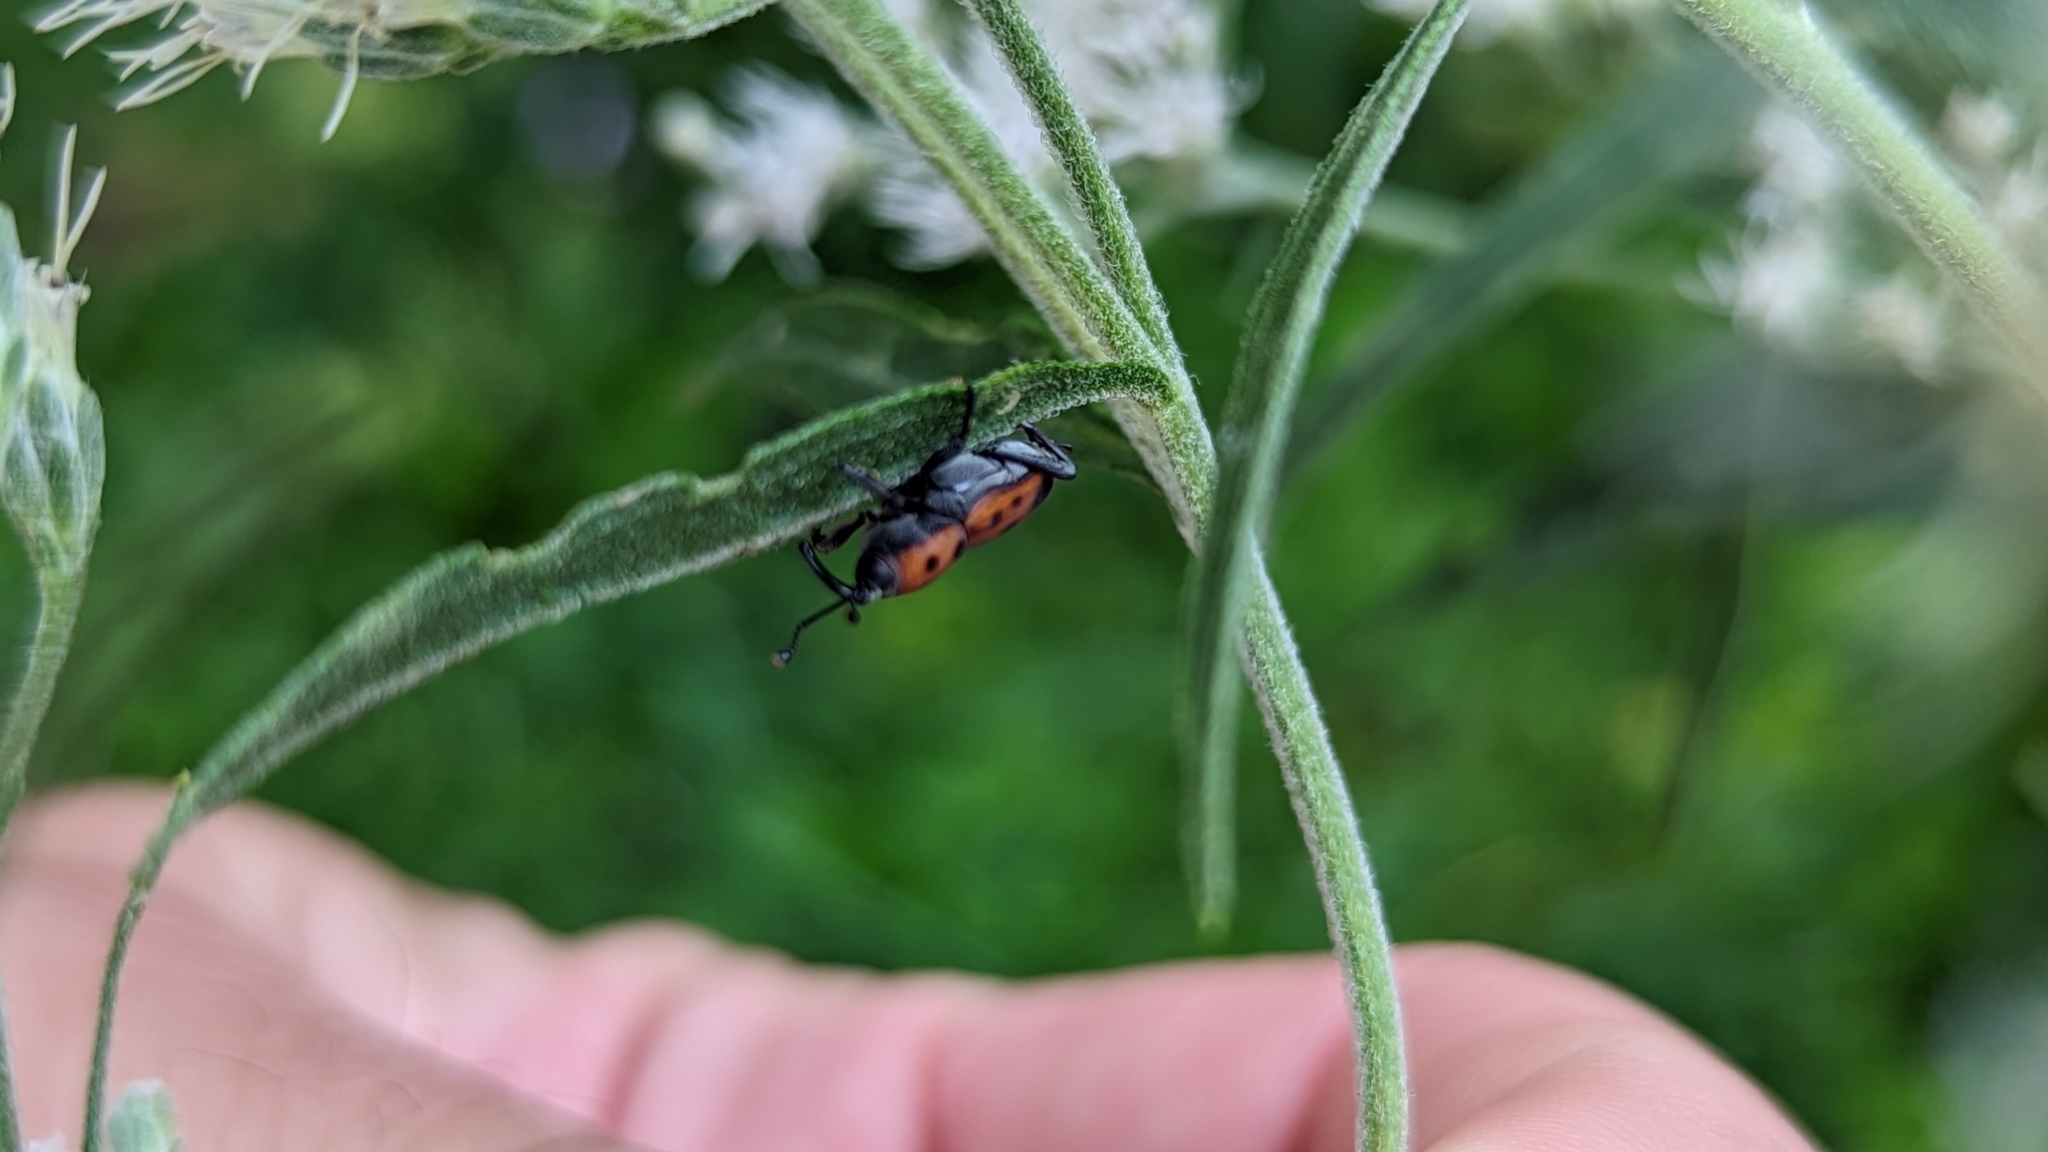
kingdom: Animalia
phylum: Arthropoda
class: Insecta
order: Coleoptera
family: Dryophthoridae
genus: Rhodobaenus
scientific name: Rhodobaenus quinquepunctatus
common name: Cocklebur weevil
